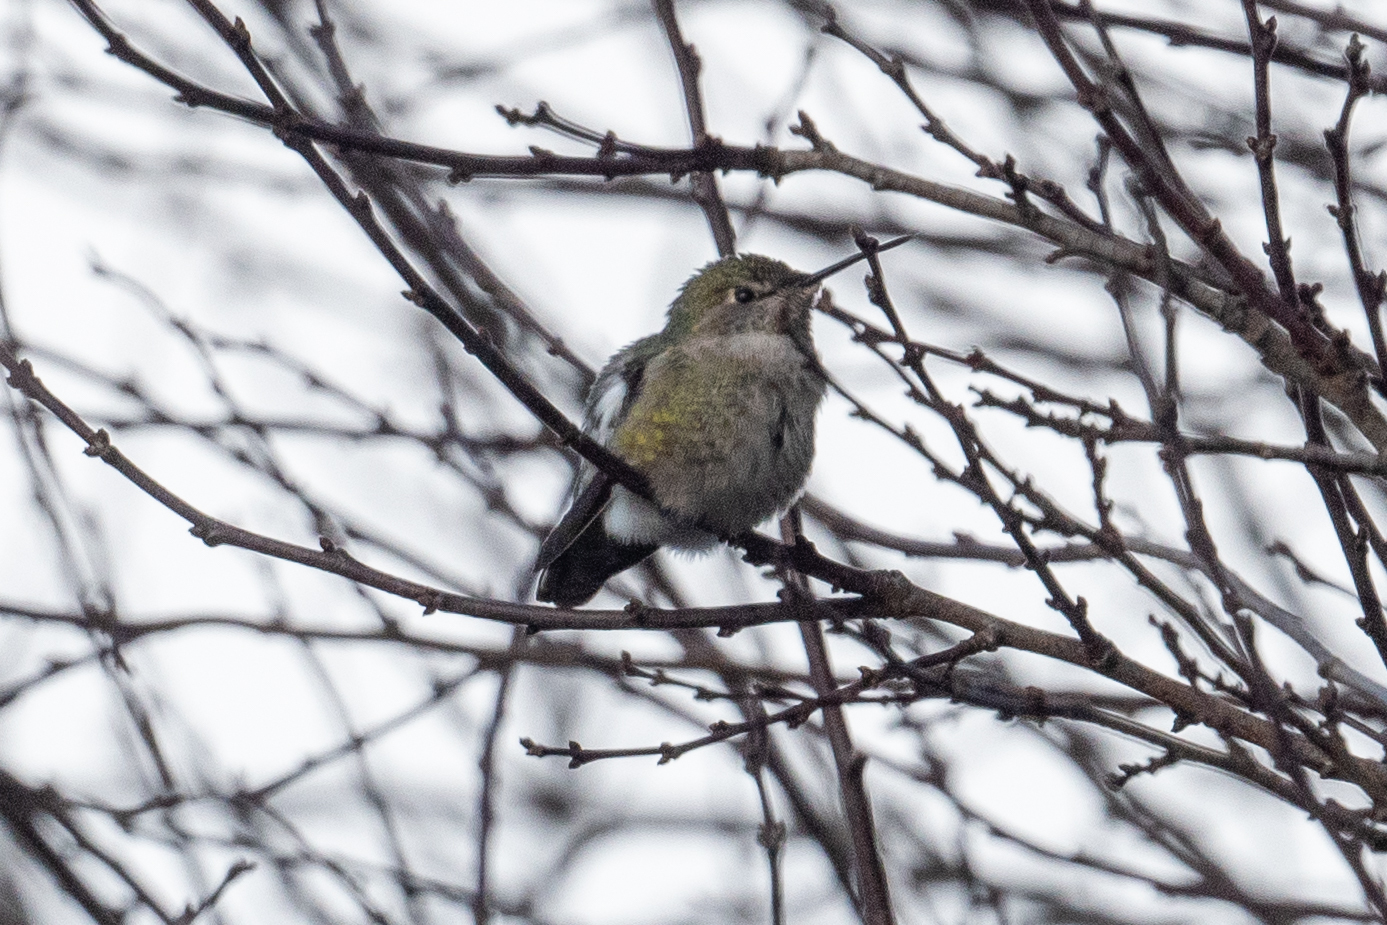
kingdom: Animalia
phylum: Chordata
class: Aves
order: Apodiformes
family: Trochilidae
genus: Calypte
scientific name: Calypte anna
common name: Anna's hummingbird
